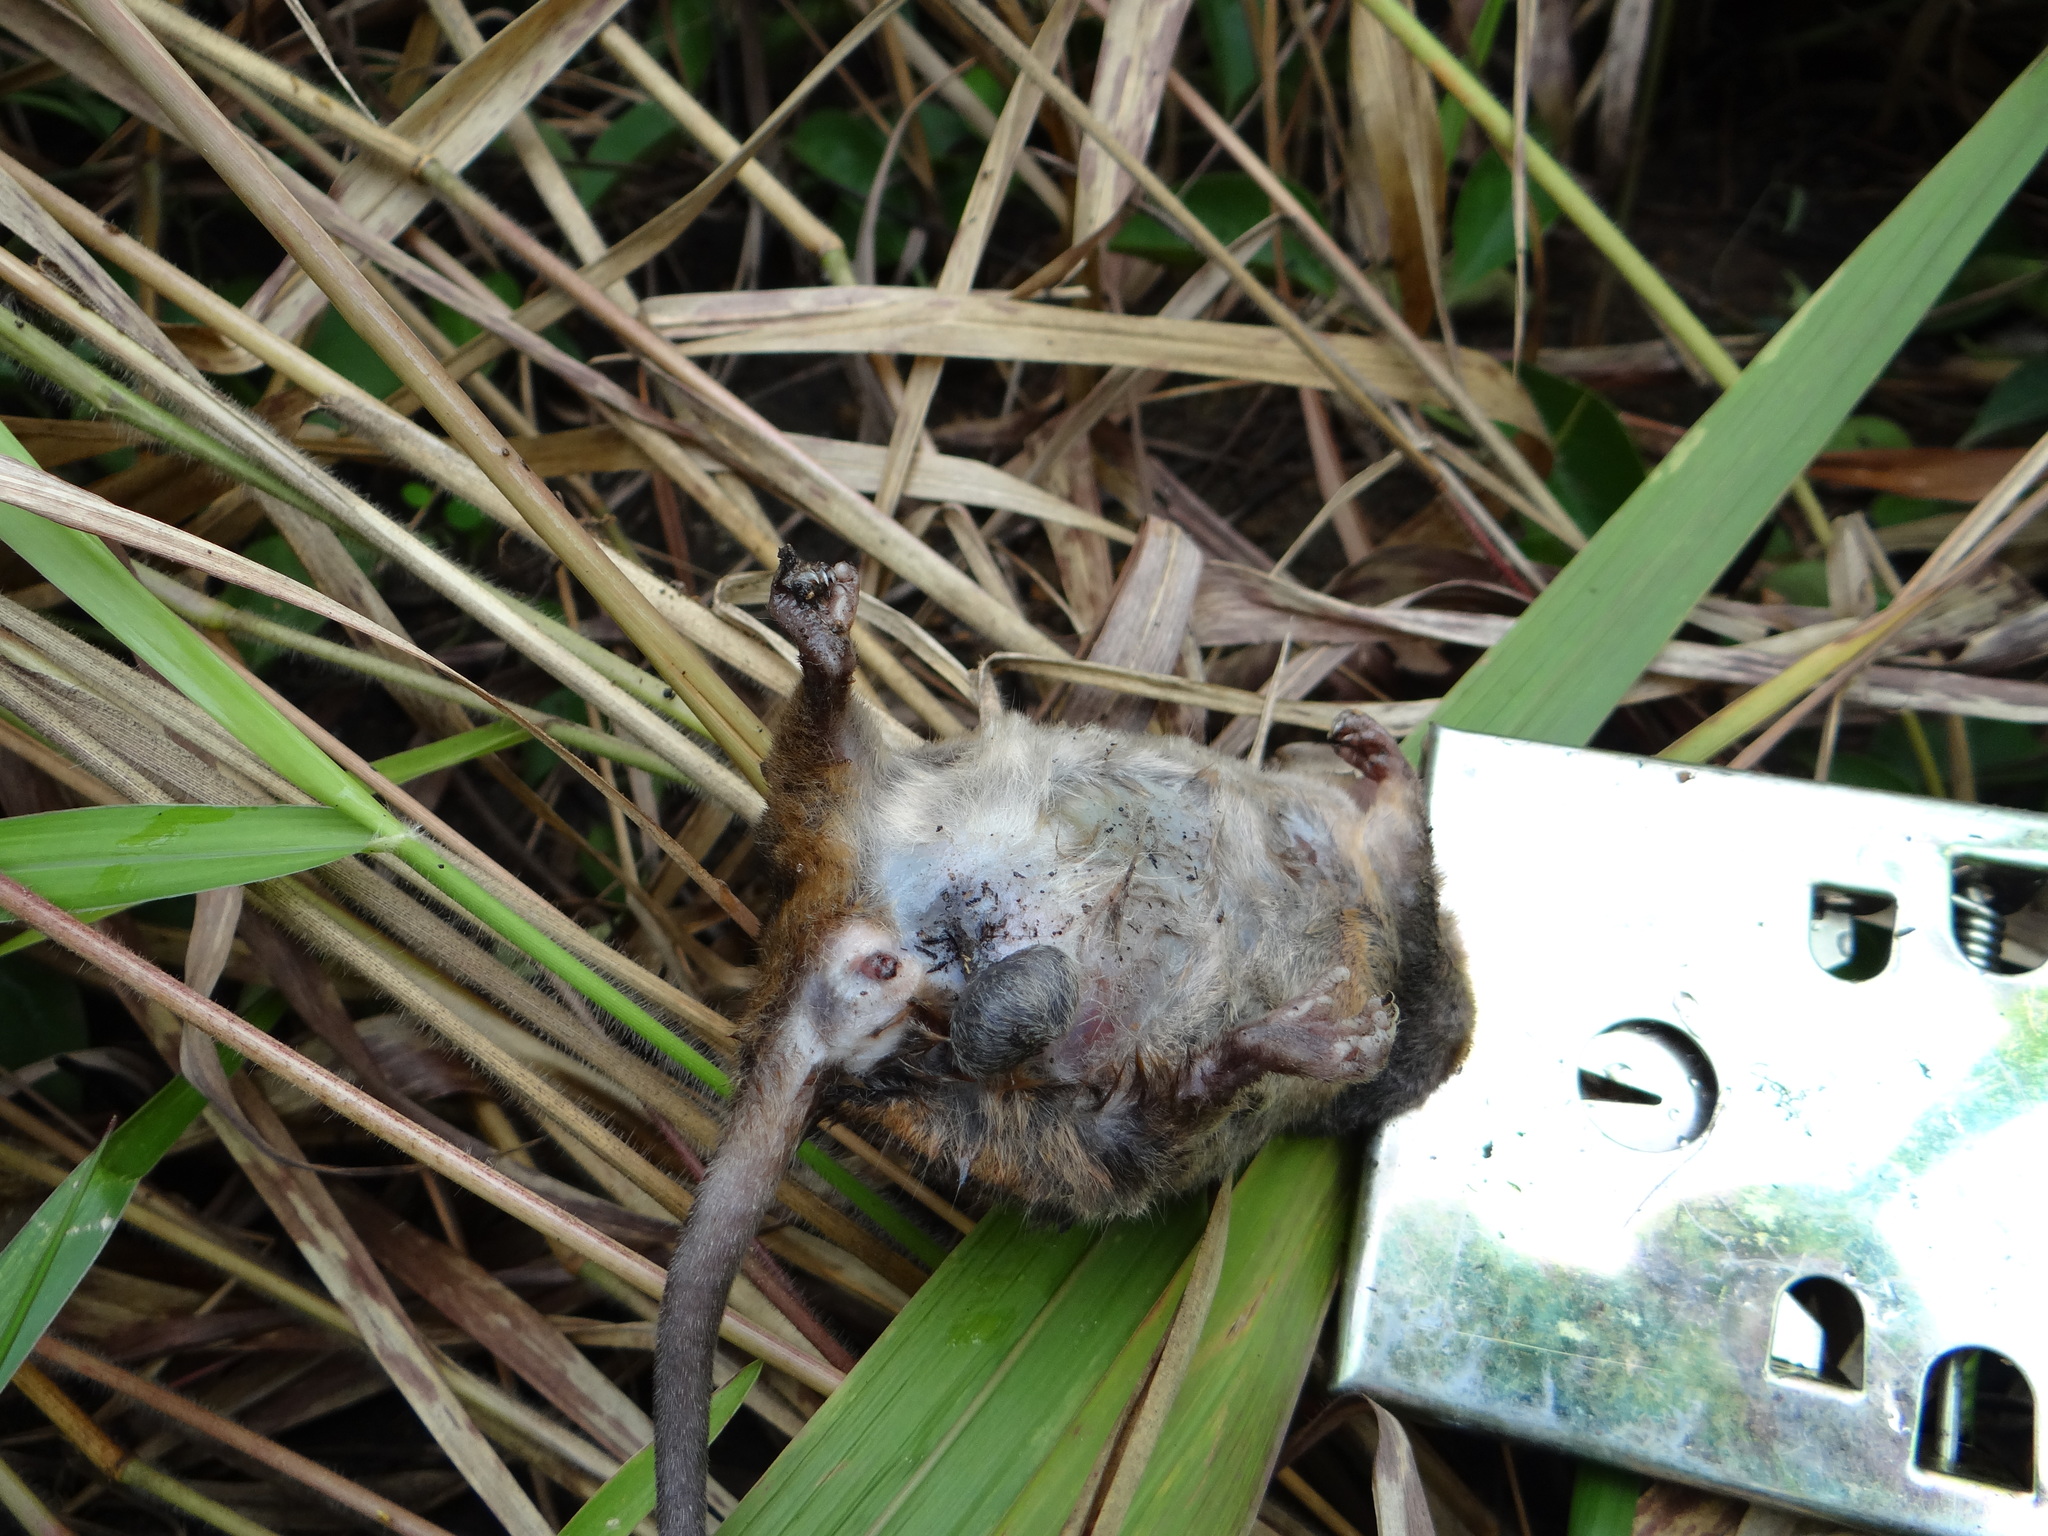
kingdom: Animalia
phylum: Chordata
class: Mammalia
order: Didelphimorphia
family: Didelphidae
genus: Monodelphis
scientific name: Monodelphis domestica
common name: Gray short-tailed opossum
